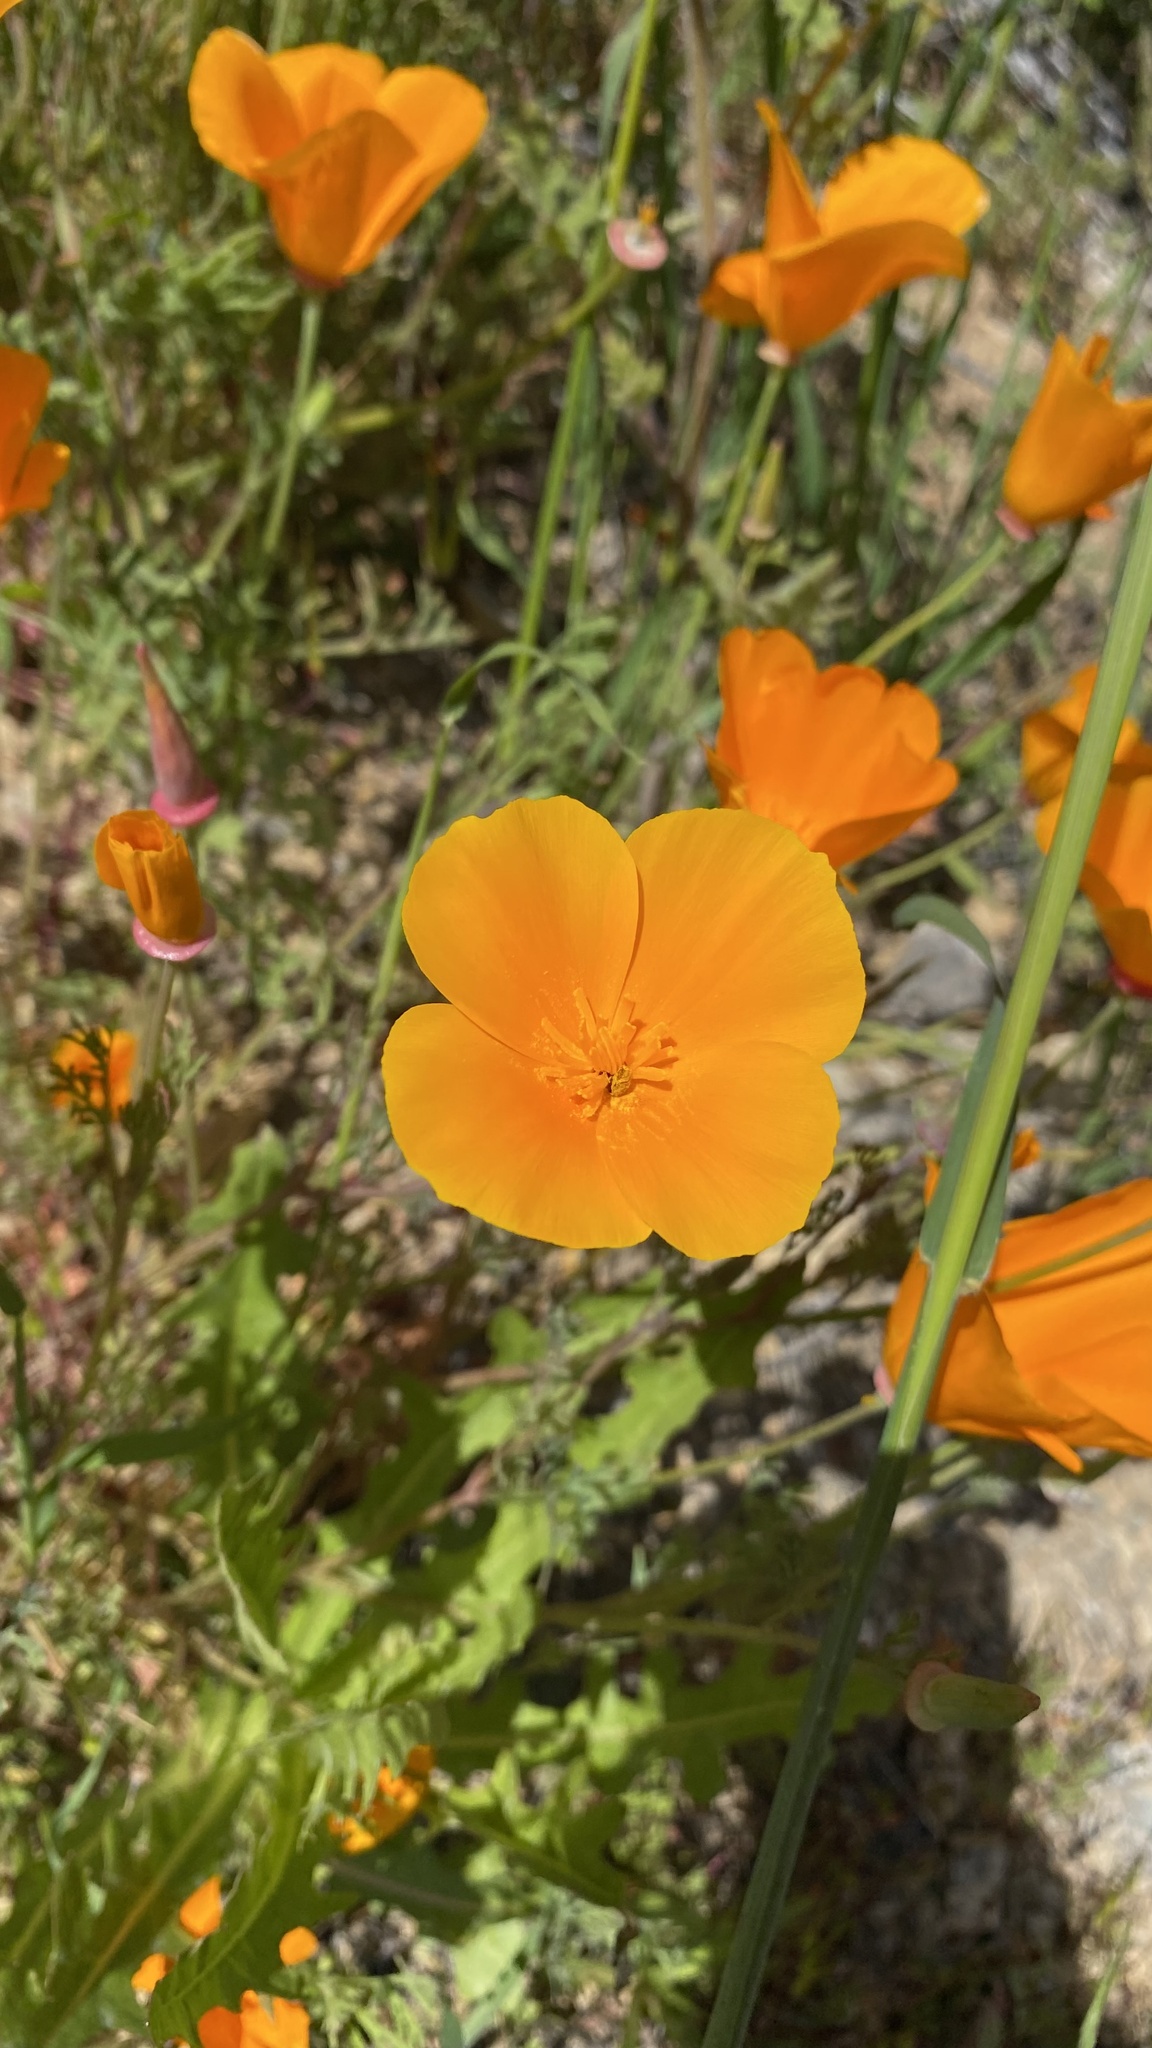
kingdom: Plantae
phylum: Tracheophyta
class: Magnoliopsida
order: Ranunculales
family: Papaveraceae
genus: Eschscholzia
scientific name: Eschscholzia californica
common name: California poppy
